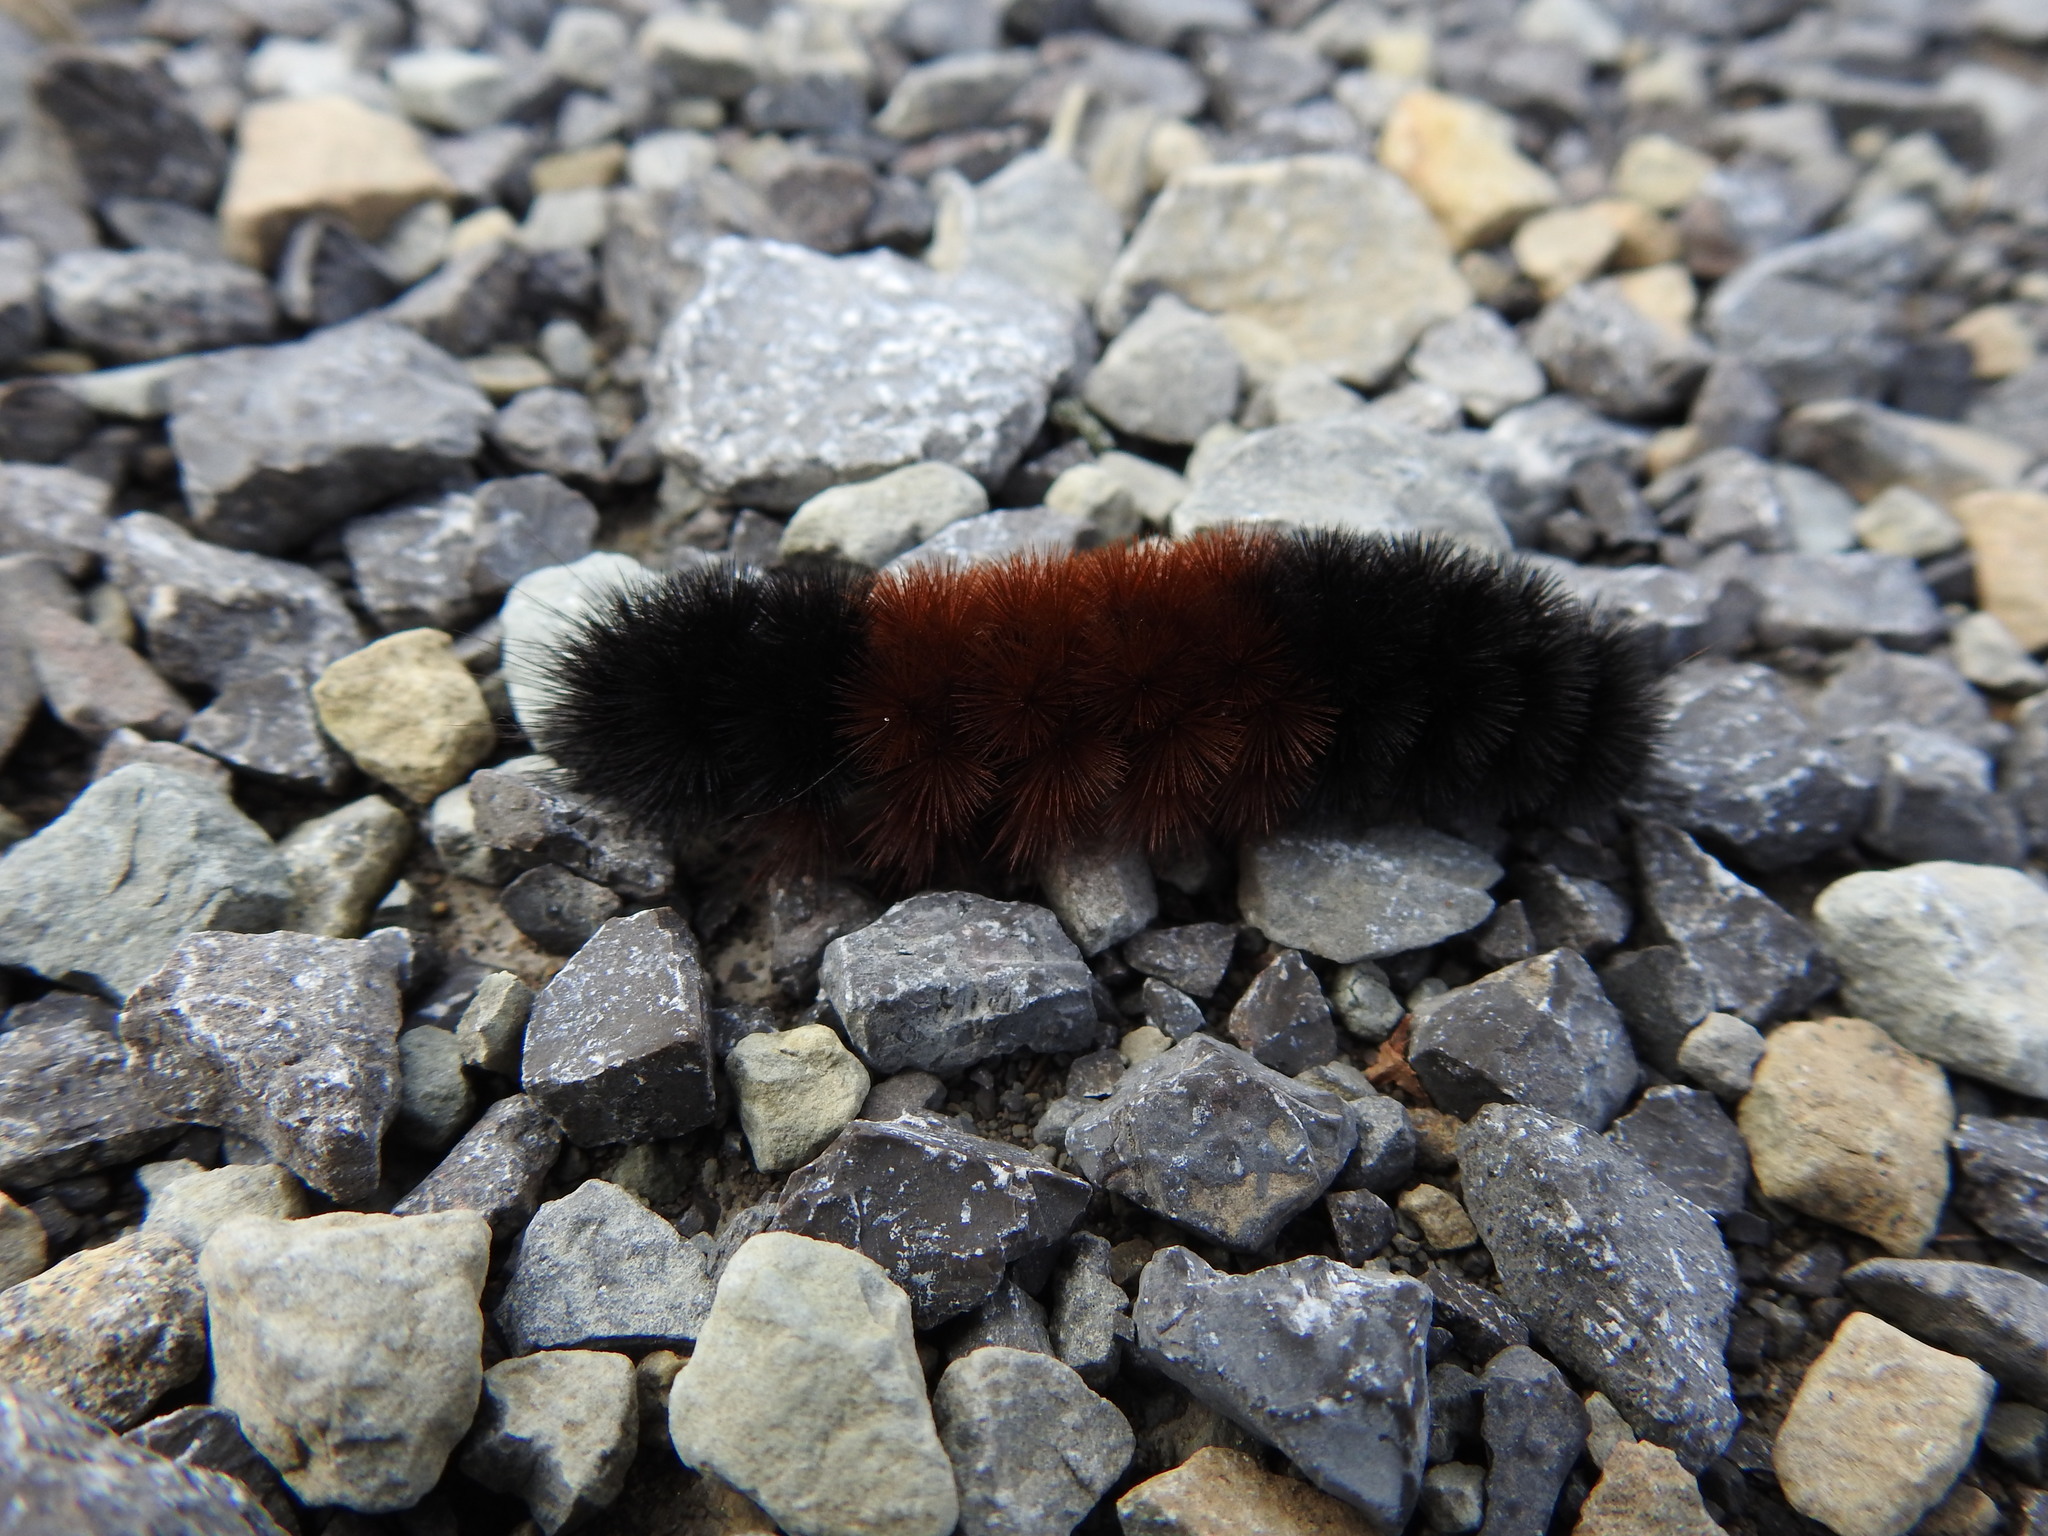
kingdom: Animalia
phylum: Arthropoda
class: Insecta
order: Lepidoptera
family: Erebidae
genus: Pyrrharctia
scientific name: Pyrrharctia isabella
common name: Isabella tiger moth
